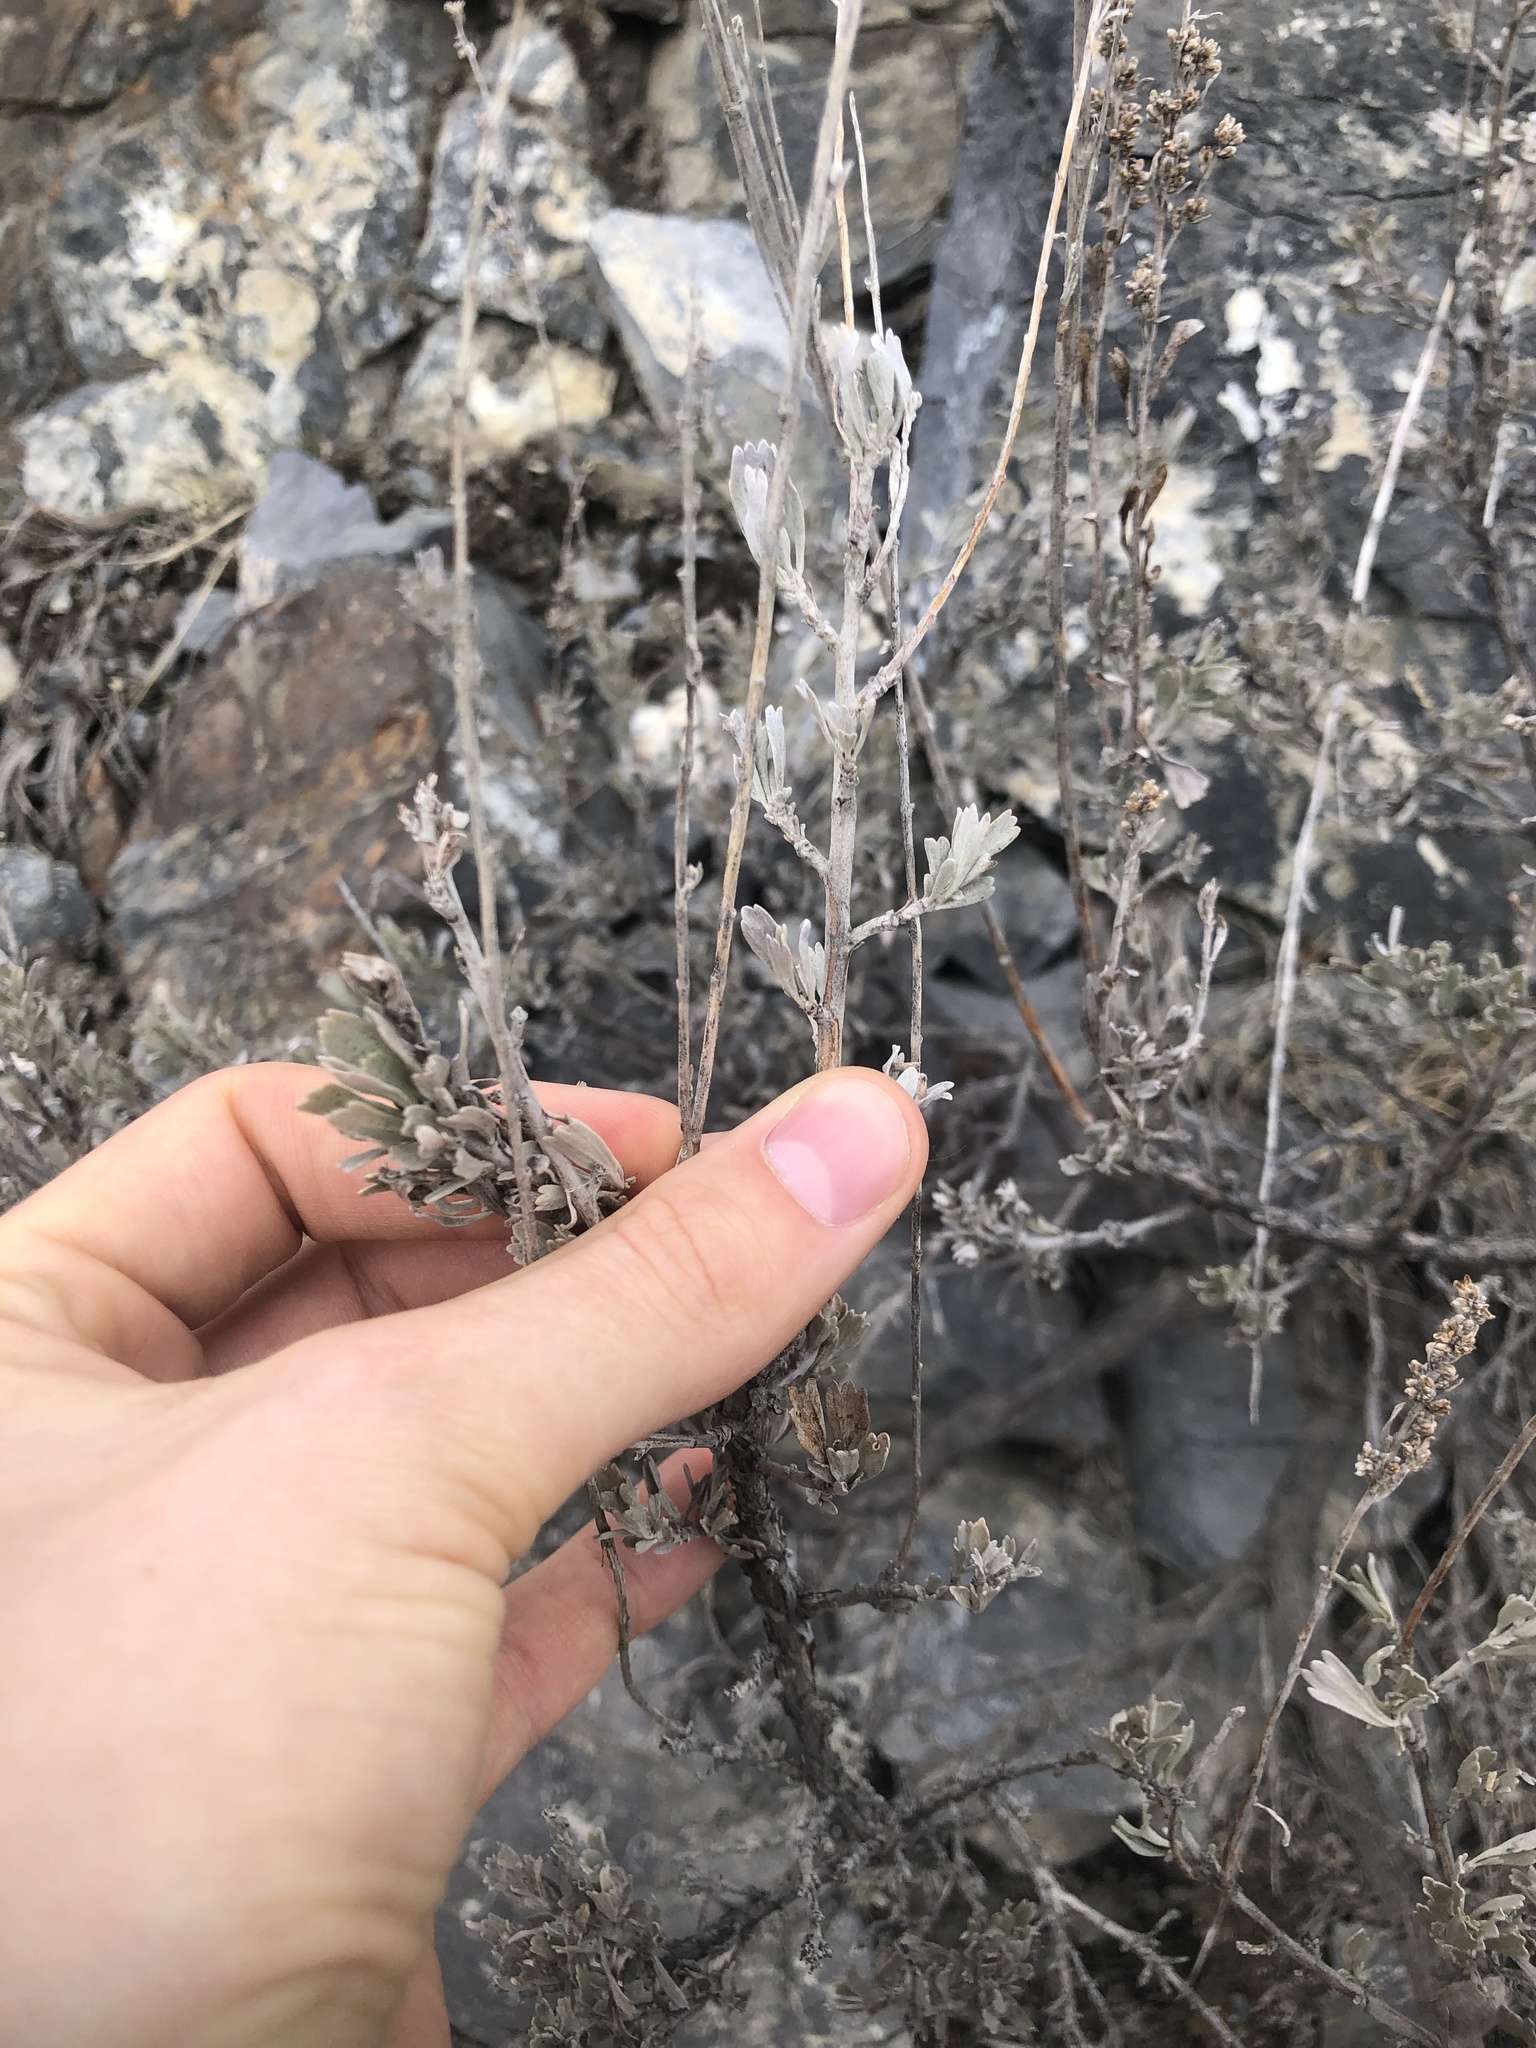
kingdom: Plantae
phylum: Tracheophyta
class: Magnoliopsida
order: Asterales
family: Asteraceae
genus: Artemisia
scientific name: Artemisia tridentata
